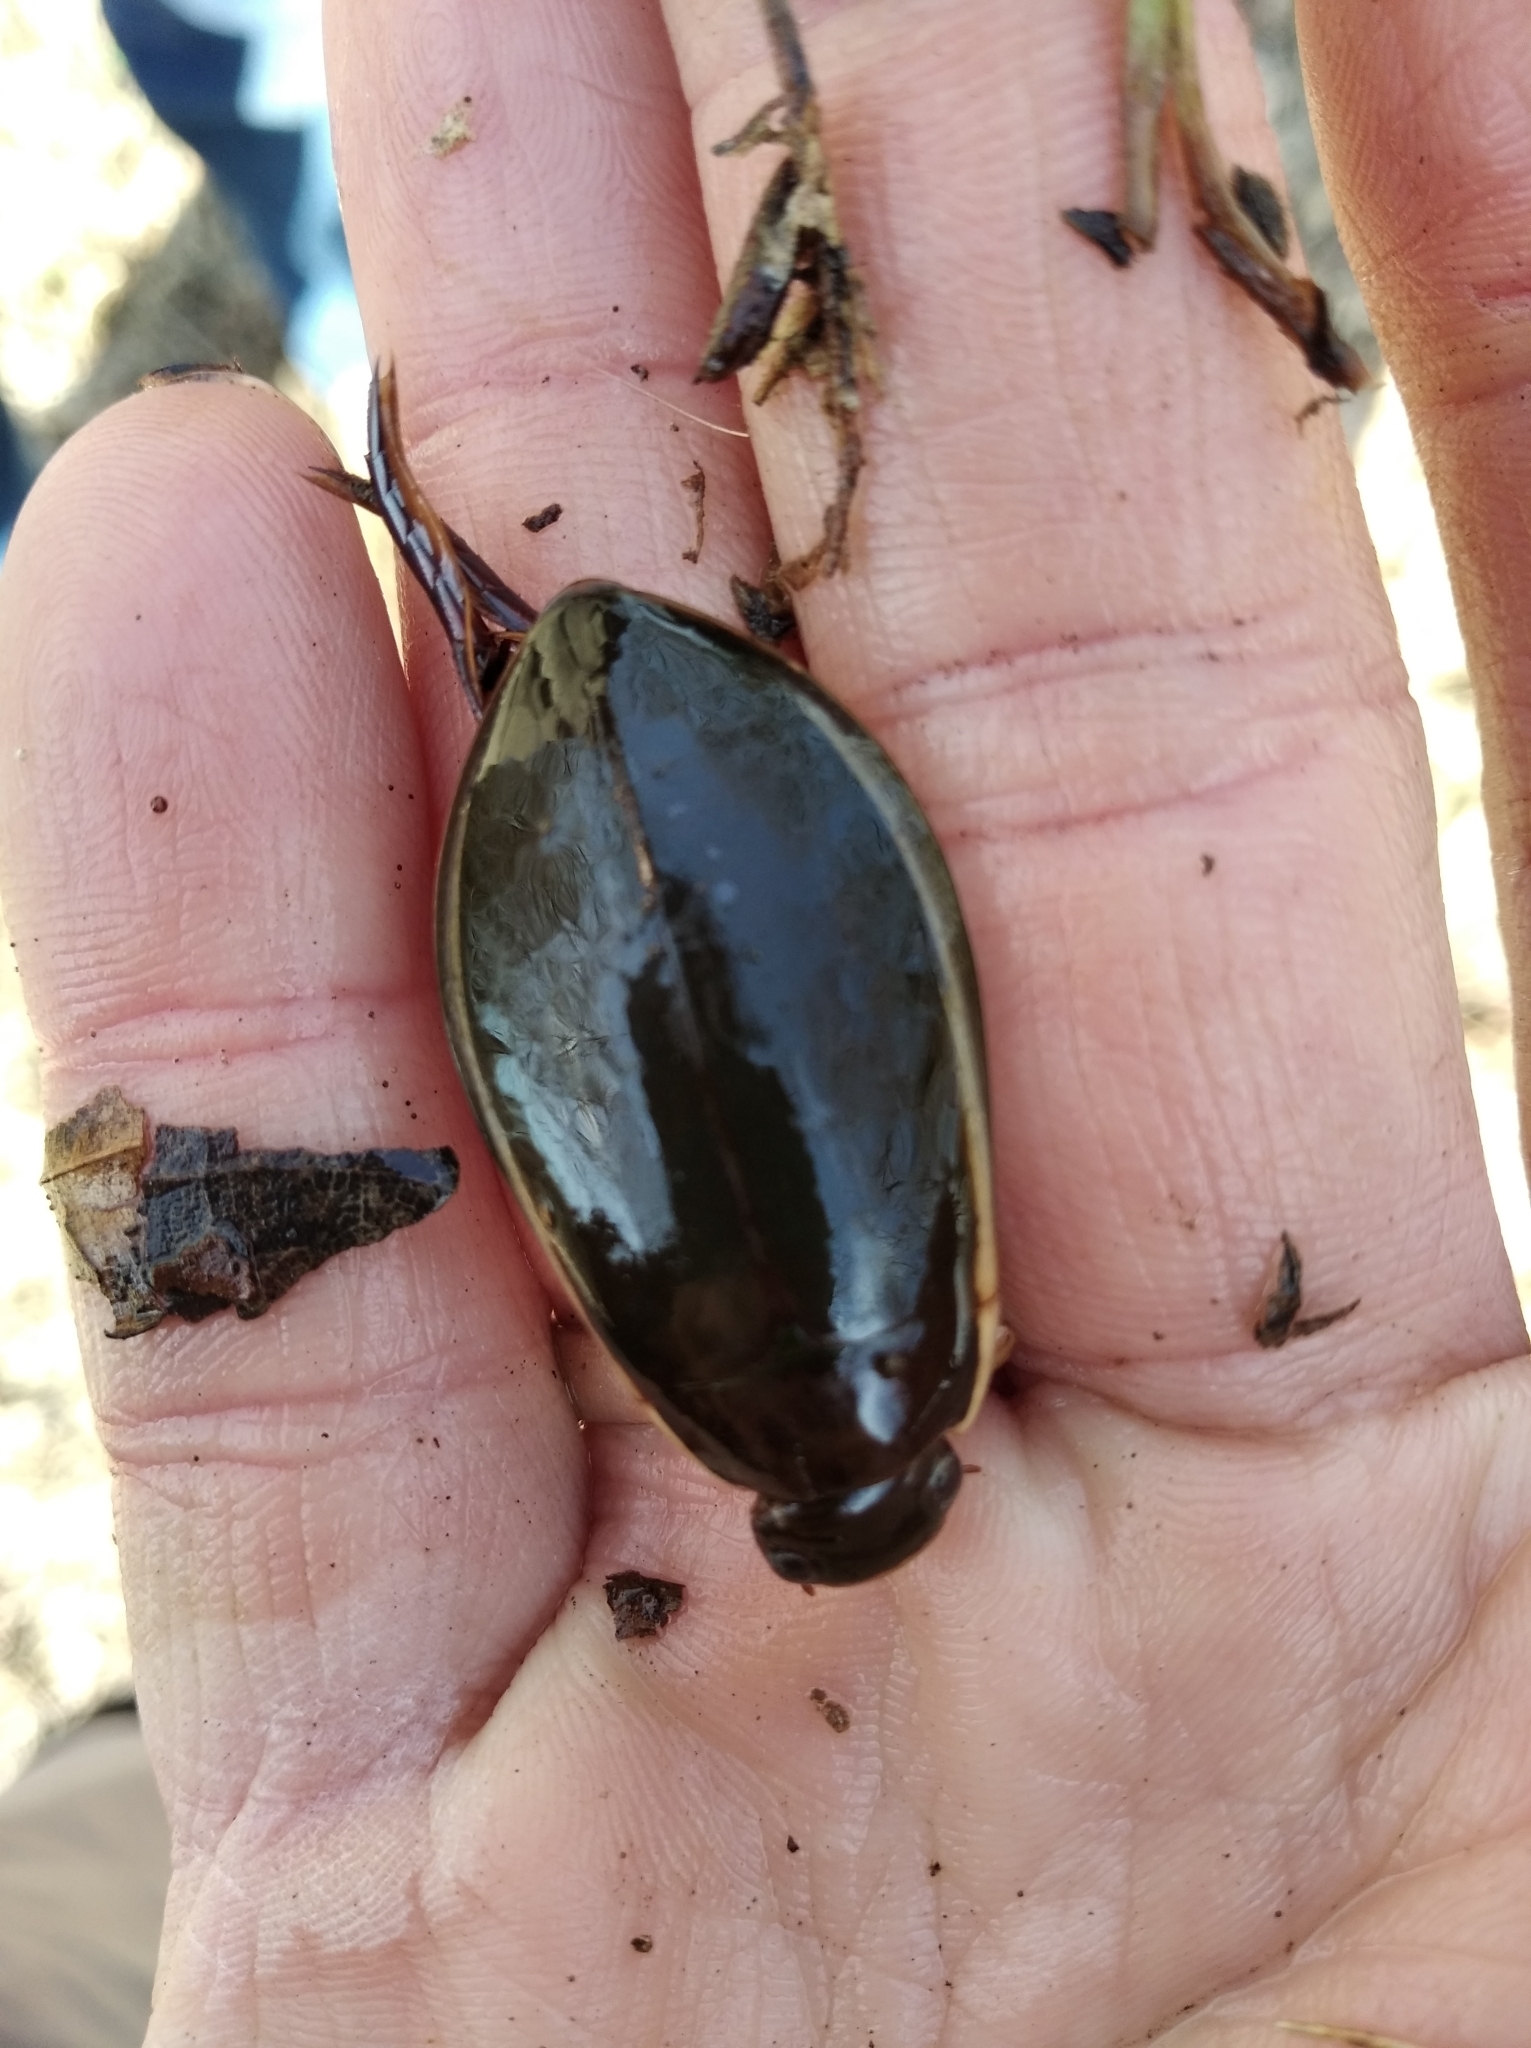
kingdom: Animalia
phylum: Arthropoda
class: Insecta
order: Coleoptera
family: Dytiscidae
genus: Cybister
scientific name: Cybister lateralimarginalis
